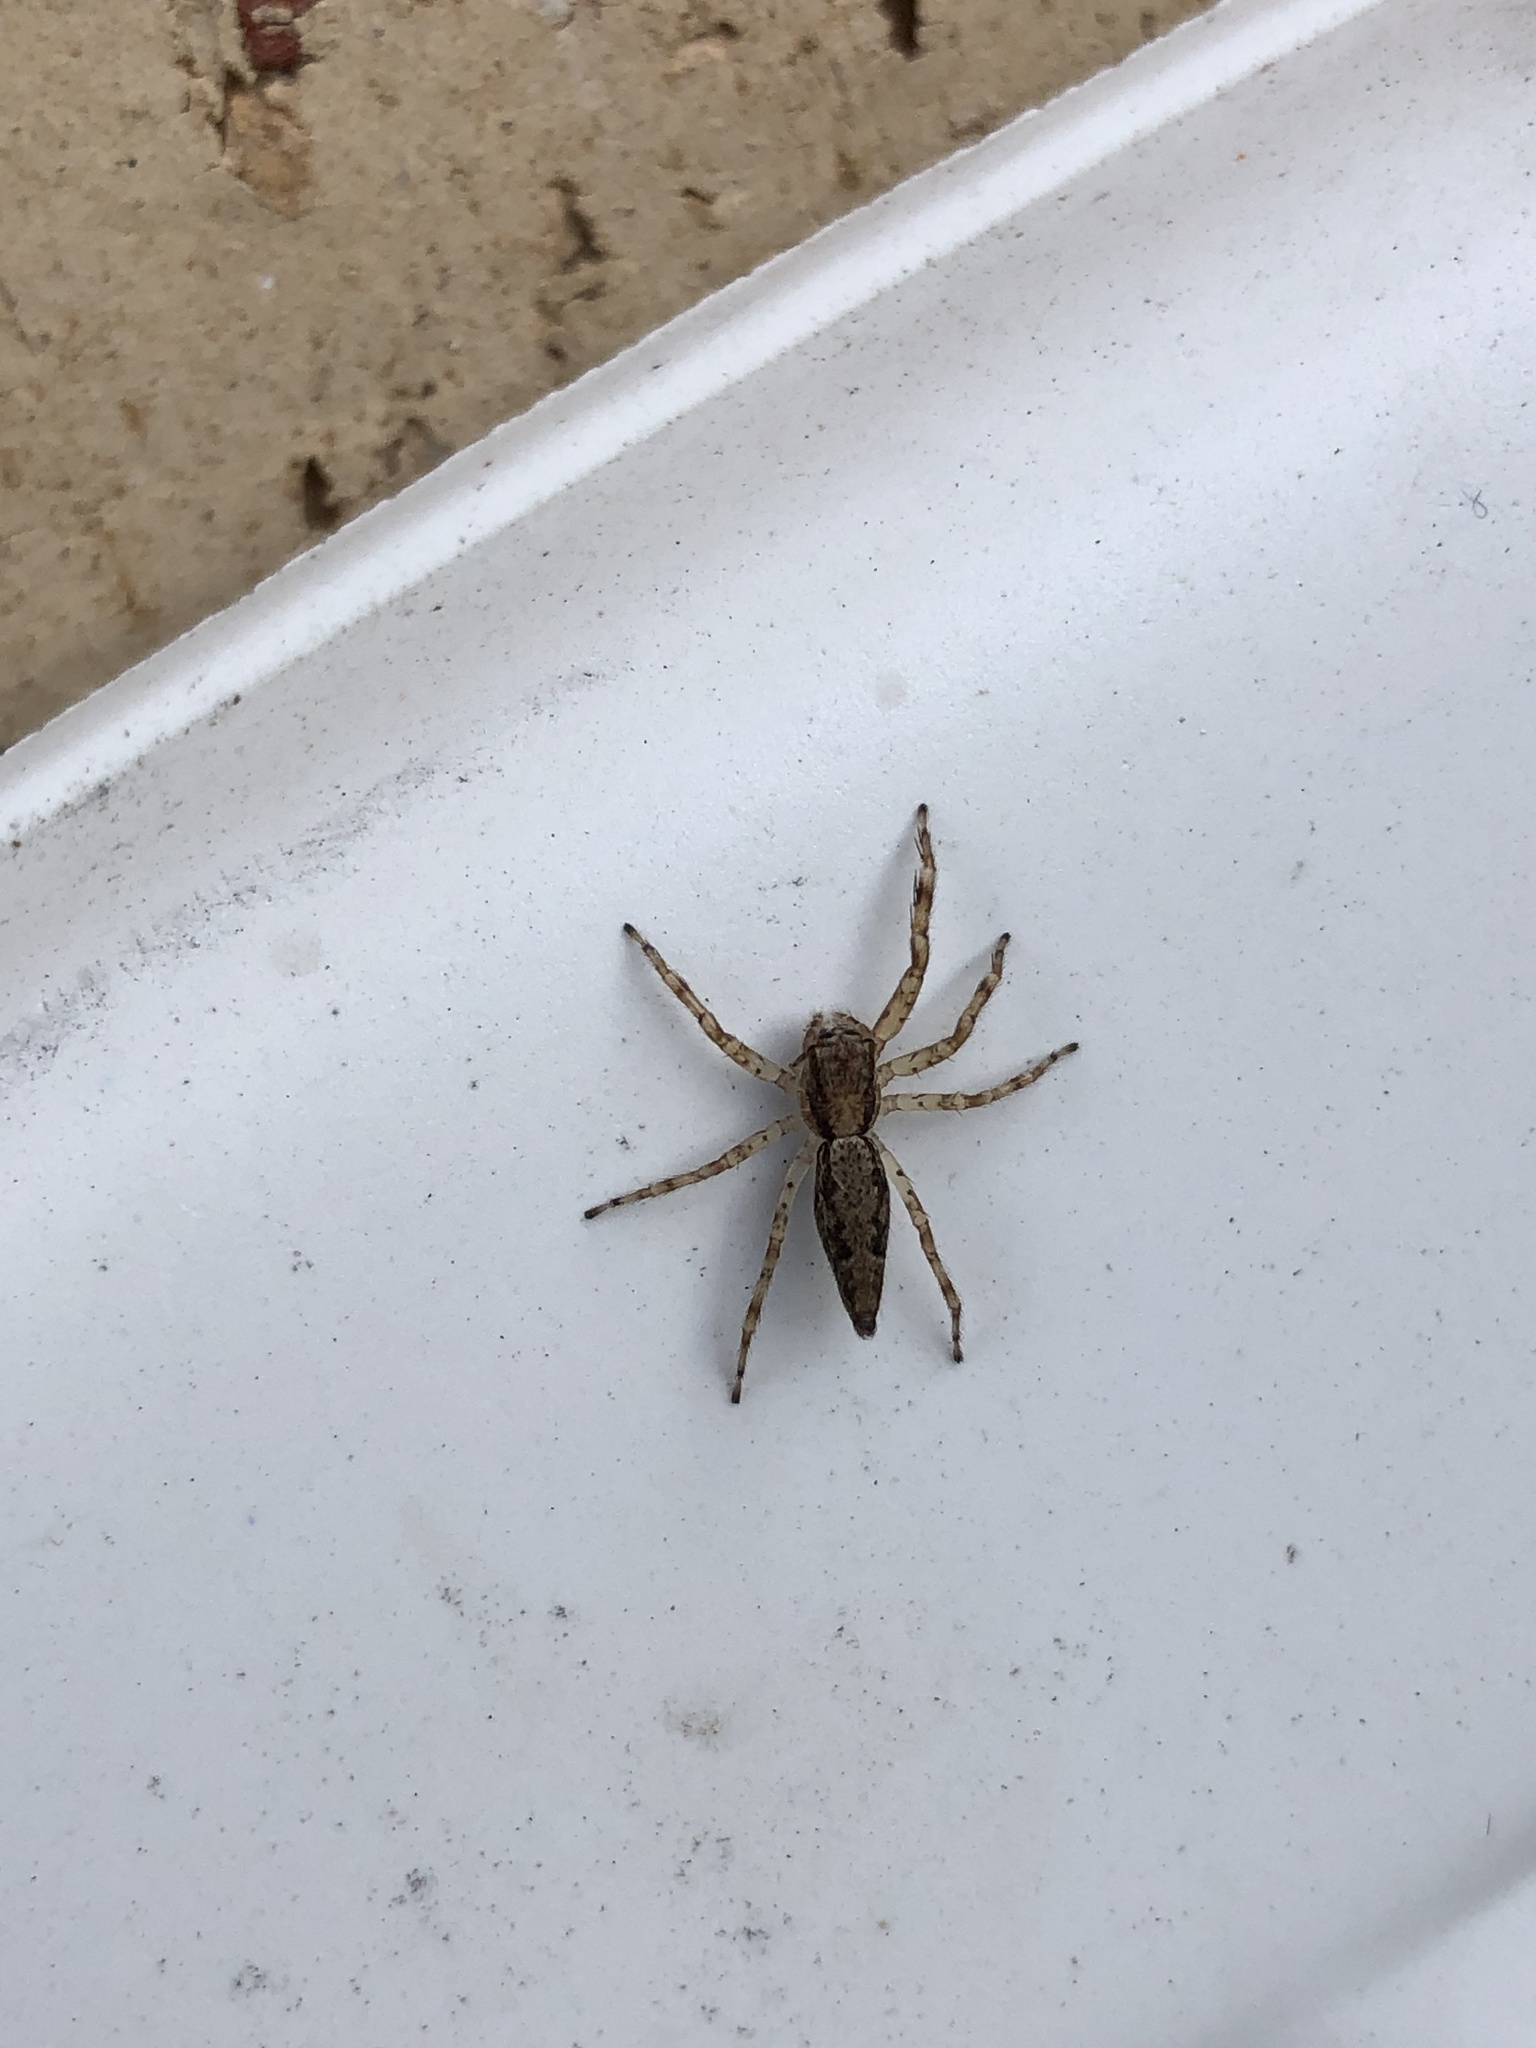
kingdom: Animalia
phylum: Arthropoda
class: Arachnida
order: Araneae
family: Salticidae
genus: Helpis
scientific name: Helpis minitabunda
